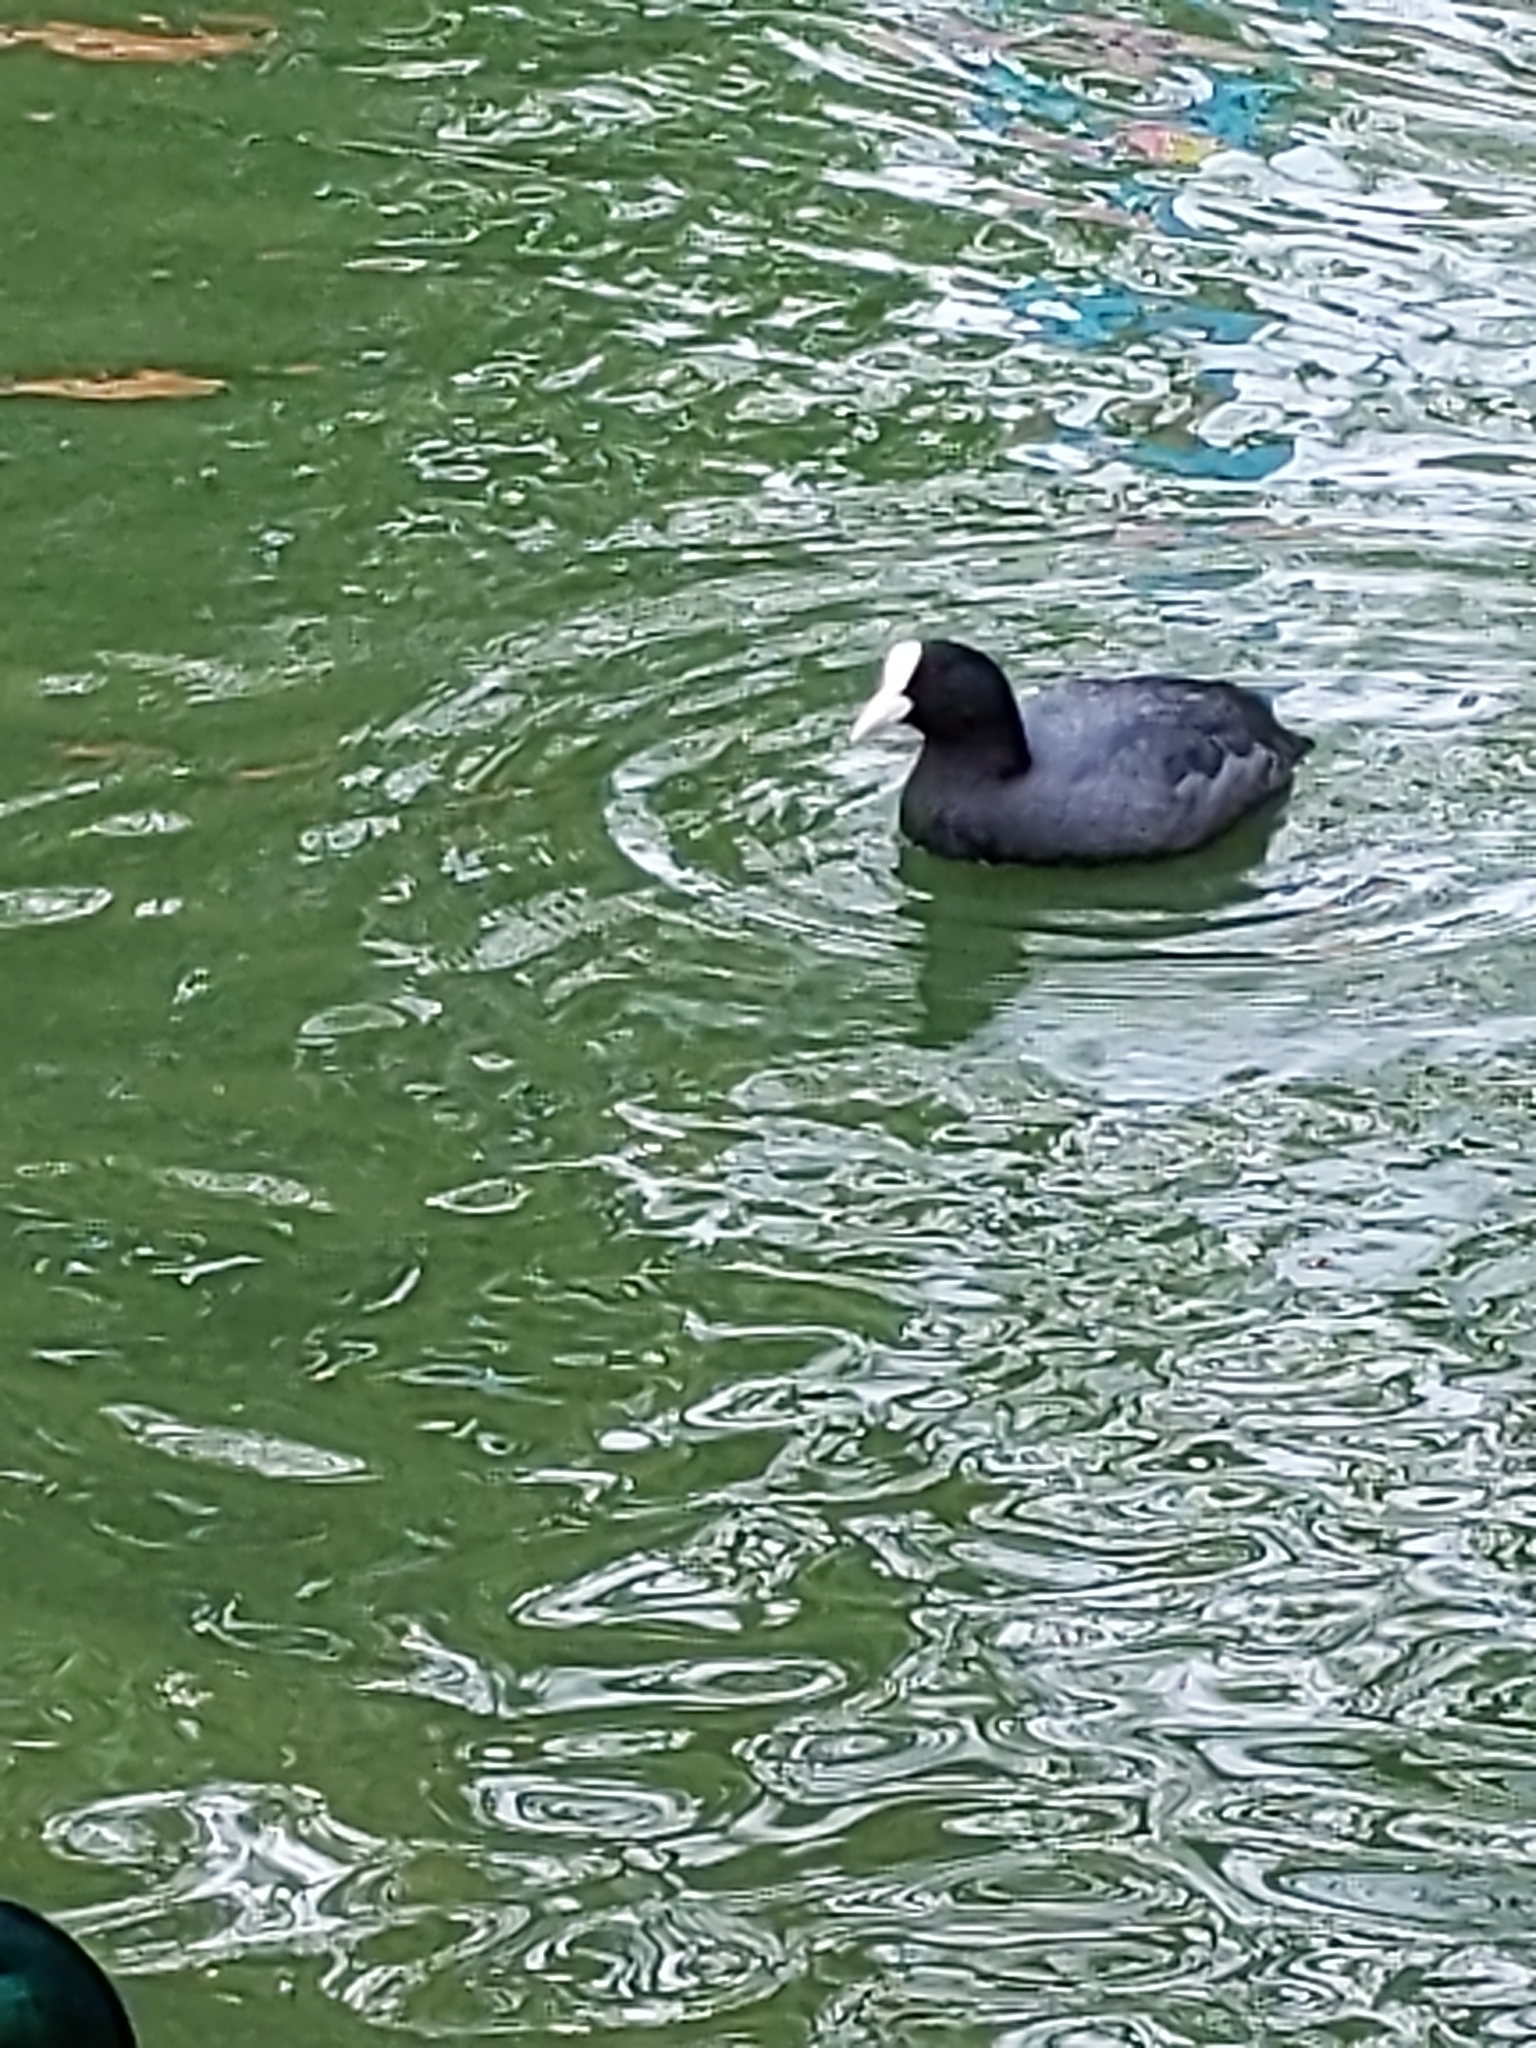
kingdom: Animalia
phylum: Chordata
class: Aves
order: Gruiformes
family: Rallidae
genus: Fulica
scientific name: Fulica atra
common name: Eurasian coot
